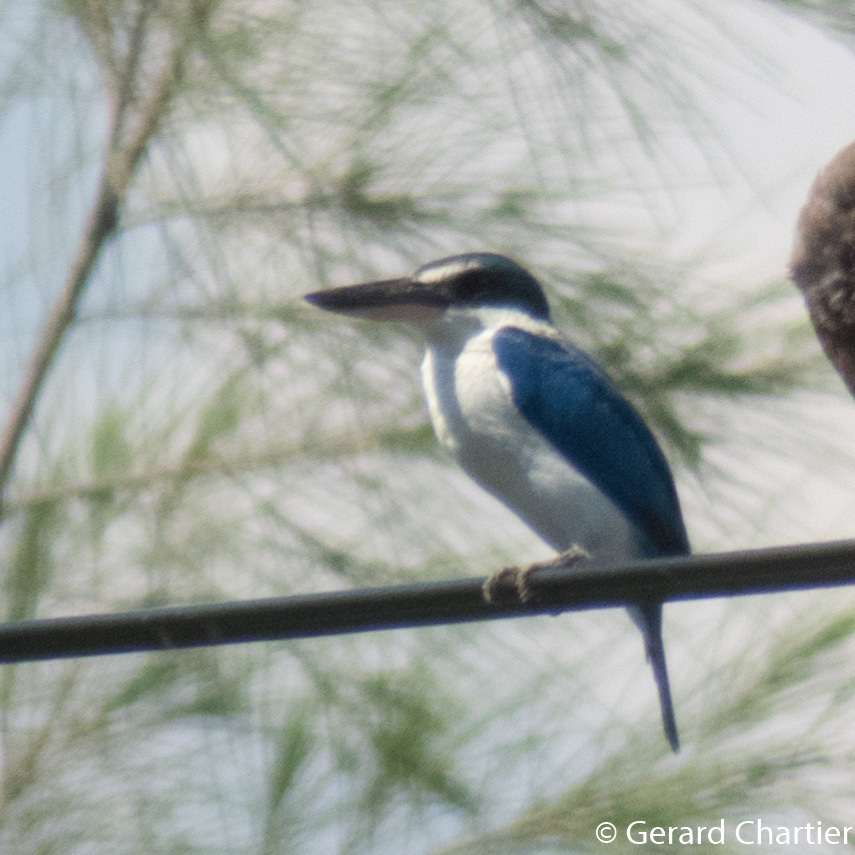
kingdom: Animalia
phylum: Chordata
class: Aves
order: Coraciiformes
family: Alcedinidae
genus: Todiramphus
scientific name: Todiramphus chloris
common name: Collared kingfisher
